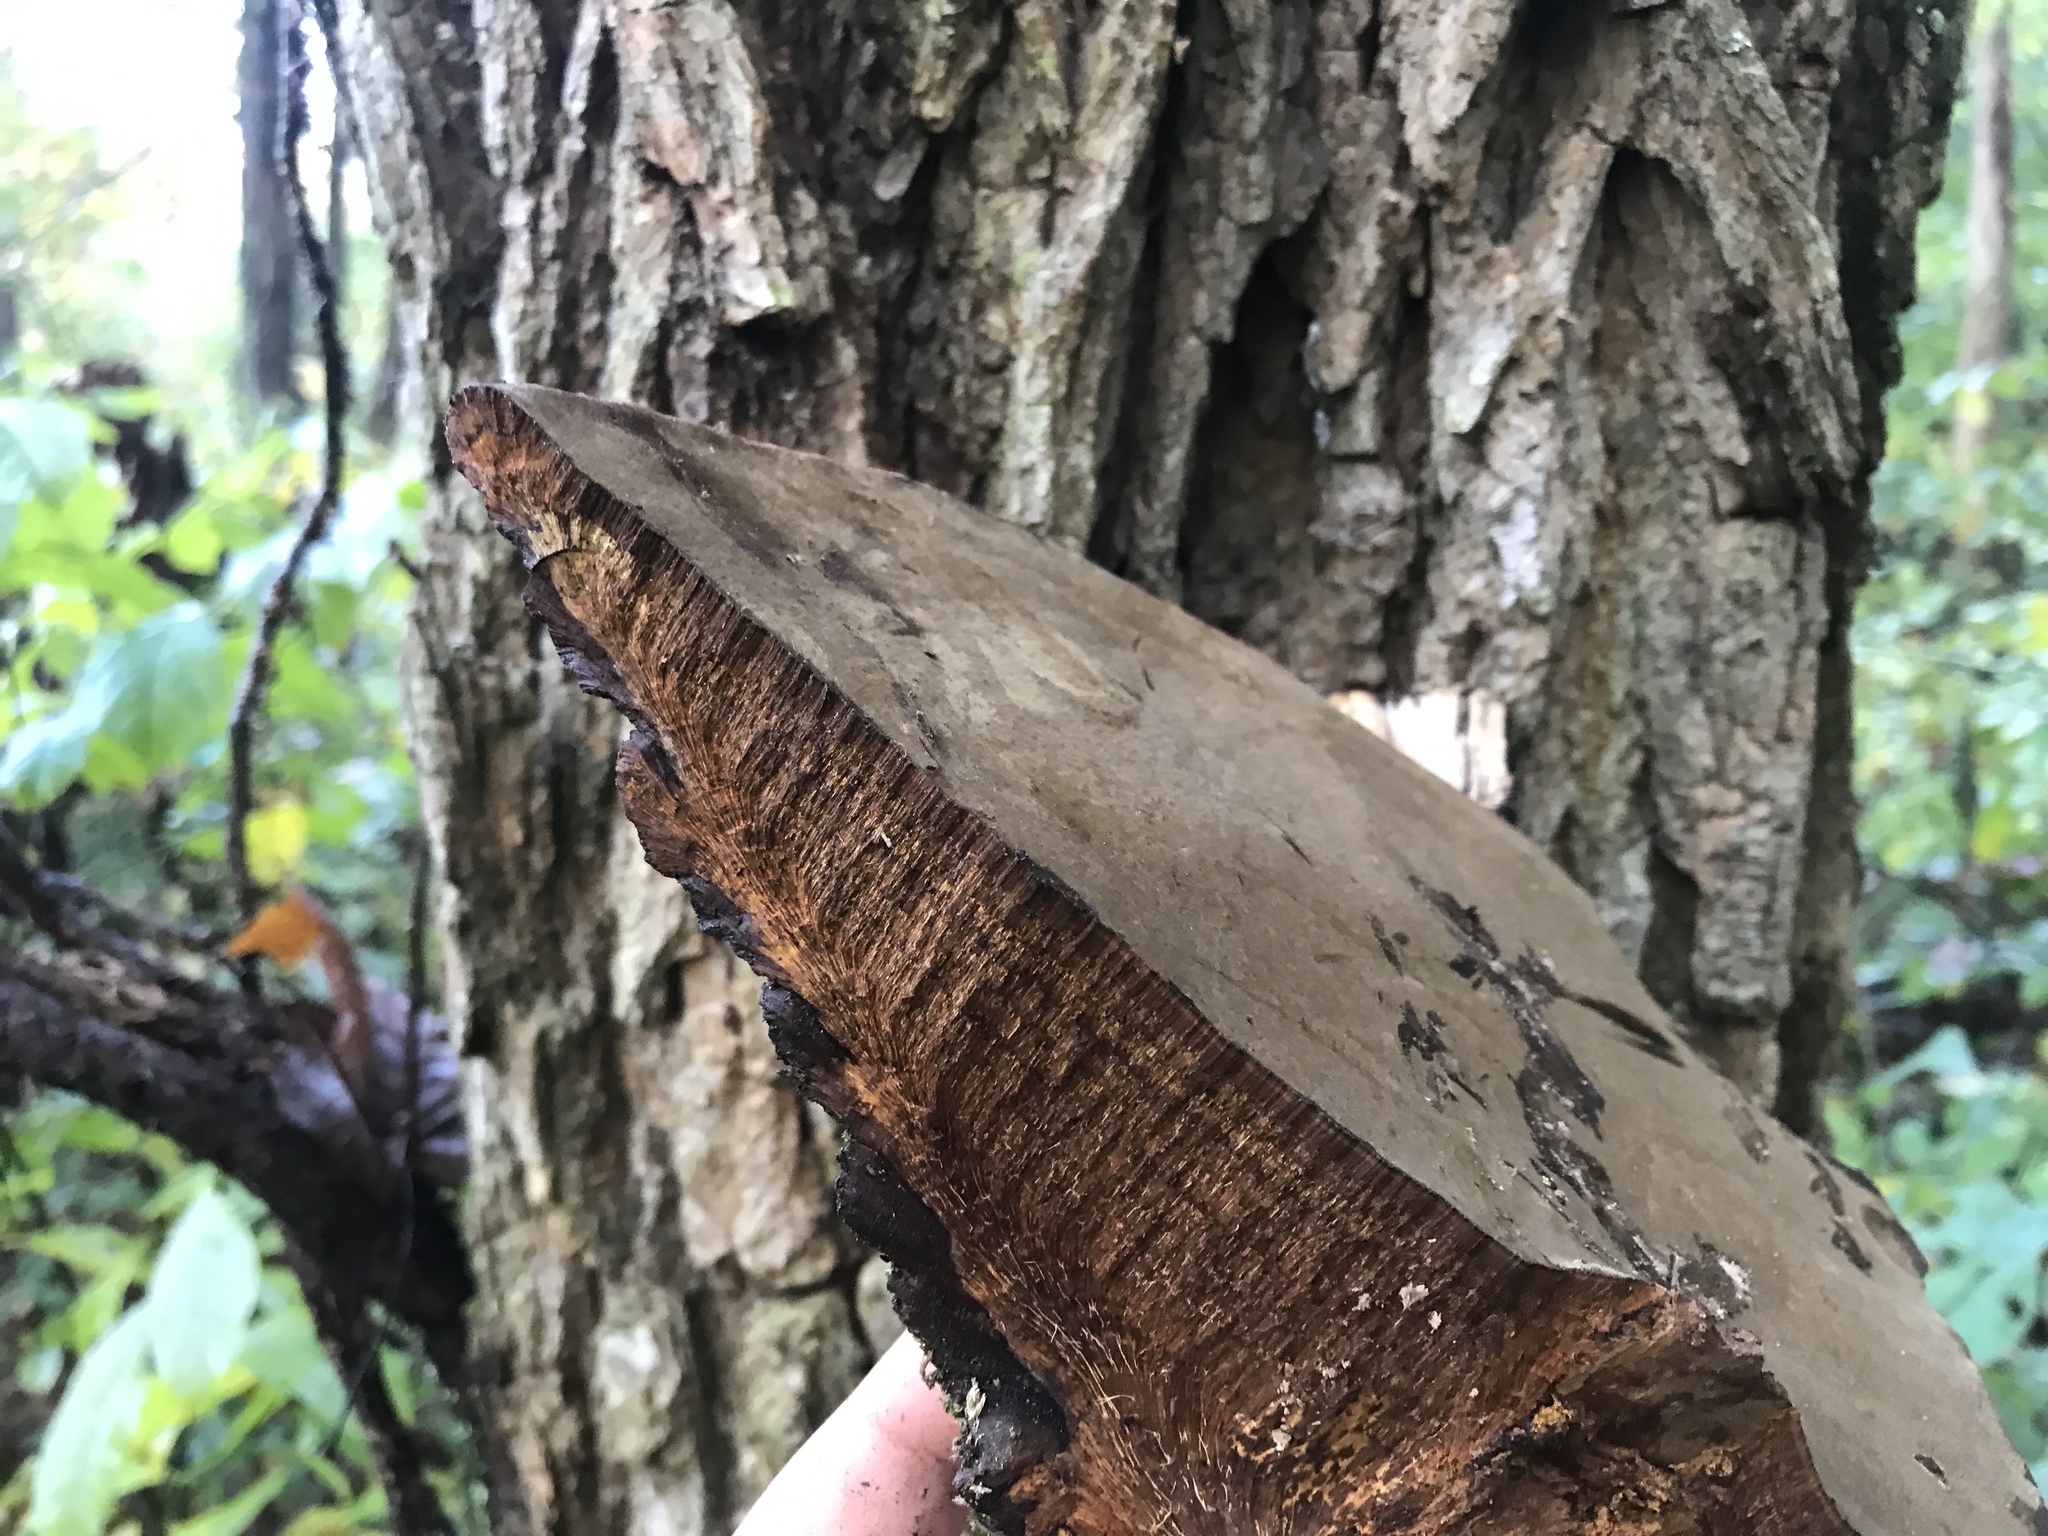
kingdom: Fungi
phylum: Basidiomycota
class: Agaricomycetes
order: Hymenochaetales
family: Hymenochaetaceae
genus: Phellinus
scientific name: Phellinus robiniae
